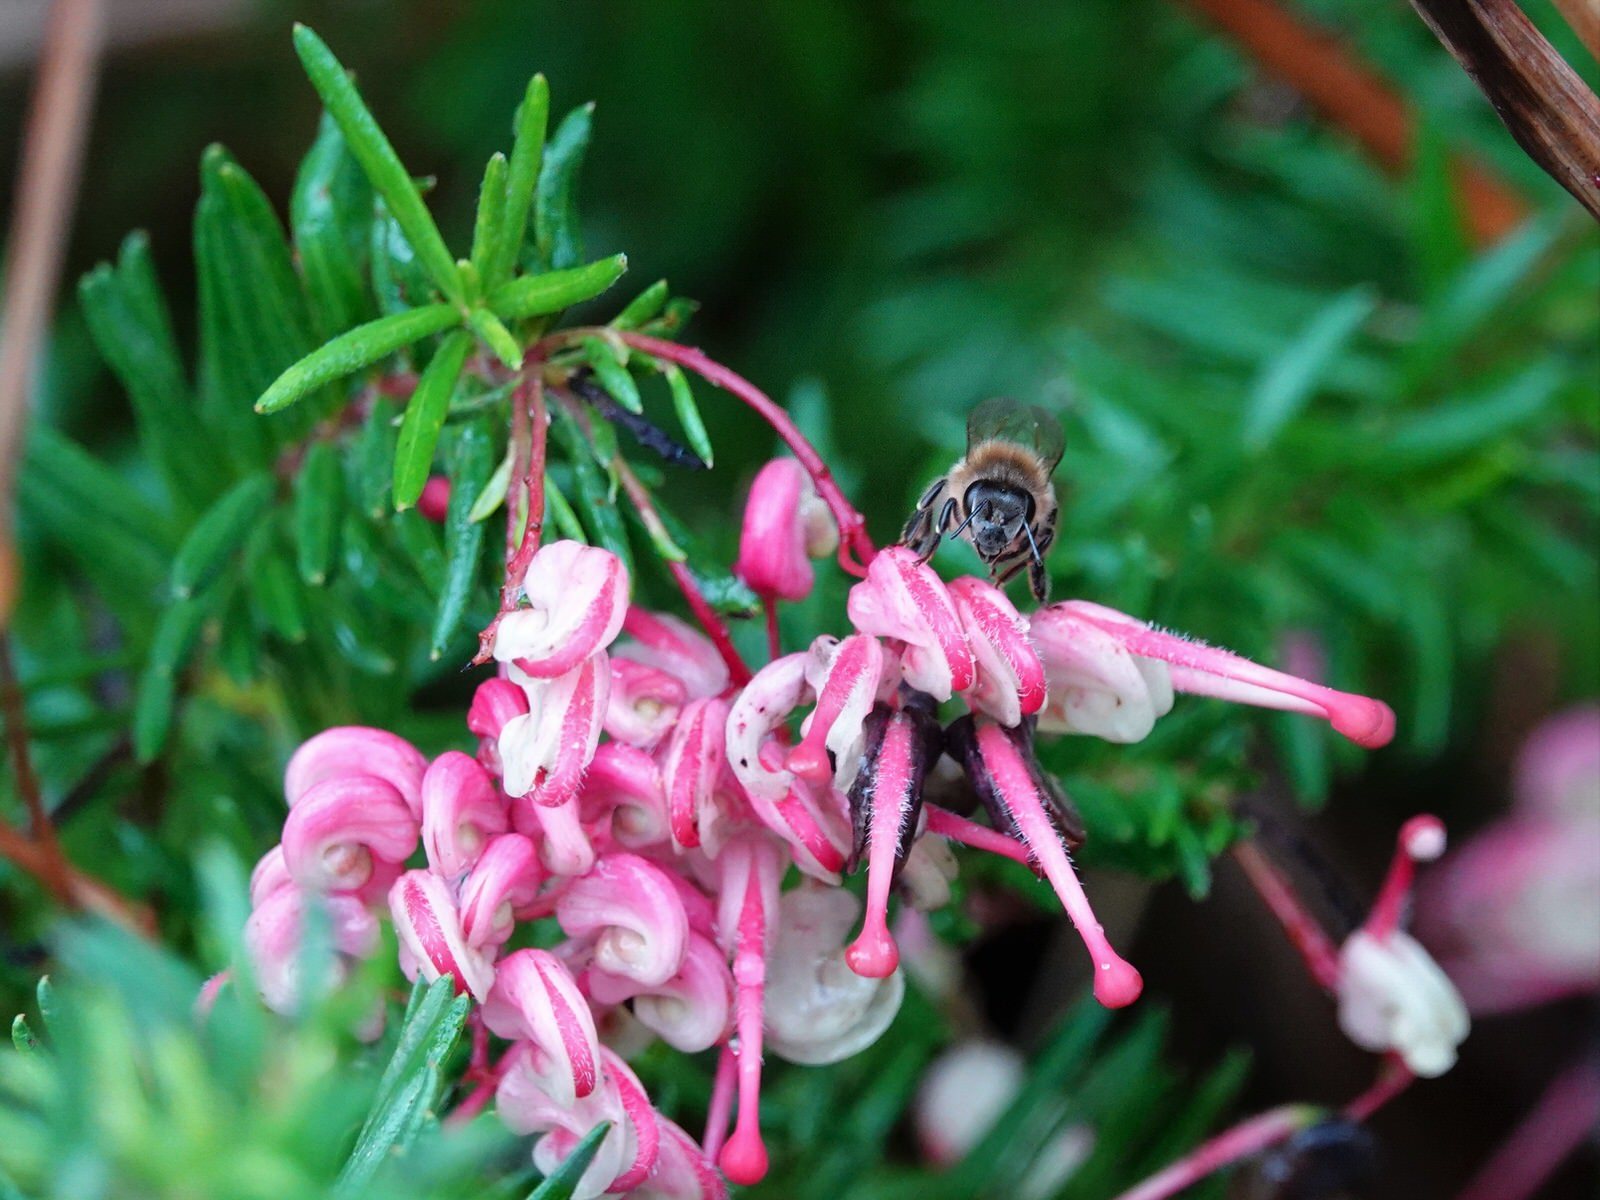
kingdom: Plantae
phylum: Tracheophyta
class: Magnoliopsida
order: Proteales
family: Proteaceae
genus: Grevillea
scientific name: Grevillea rosmarinifolia
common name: Rosemary grevillea
